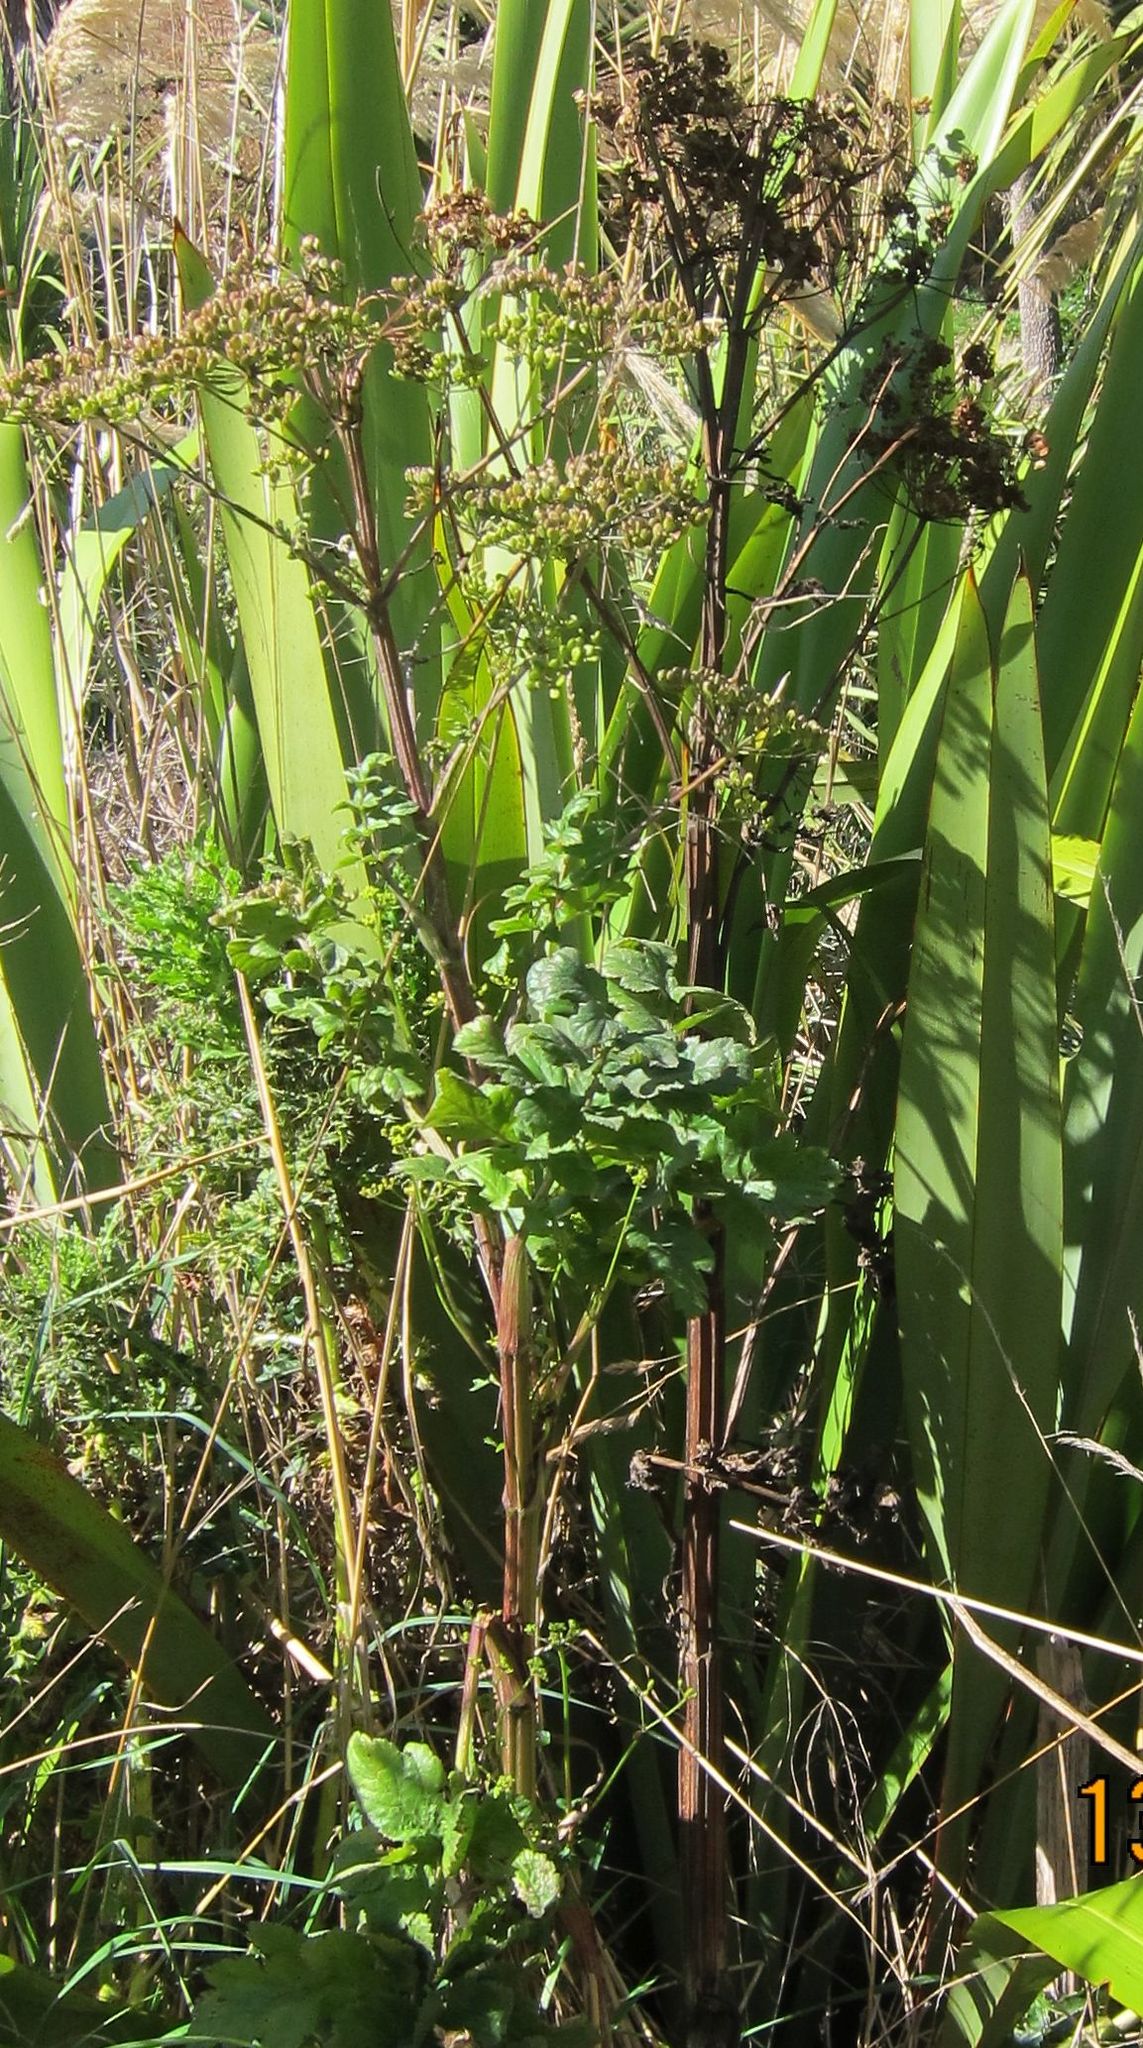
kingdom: Plantae
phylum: Tracheophyta
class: Magnoliopsida
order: Apiales
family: Apiaceae
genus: Heracleum
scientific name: Heracleum sphondylium
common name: Hogweed
